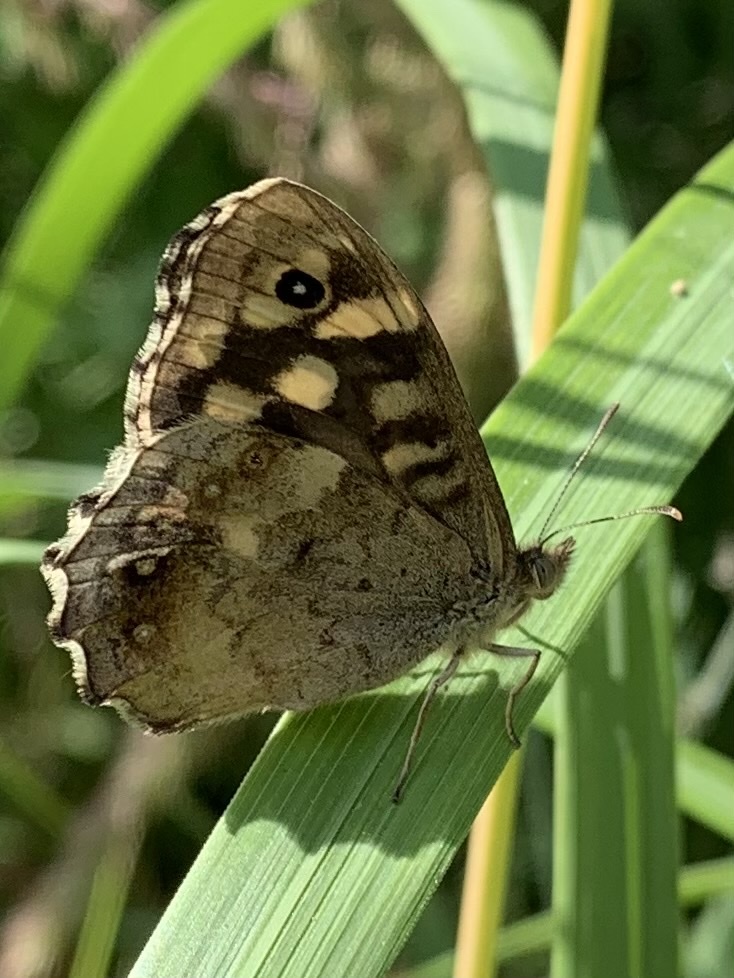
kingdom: Animalia
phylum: Arthropoda
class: Insecta
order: Lepidoptera
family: Nymphalidae
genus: Pararge
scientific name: Pararge aegeria
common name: Speckled wood
